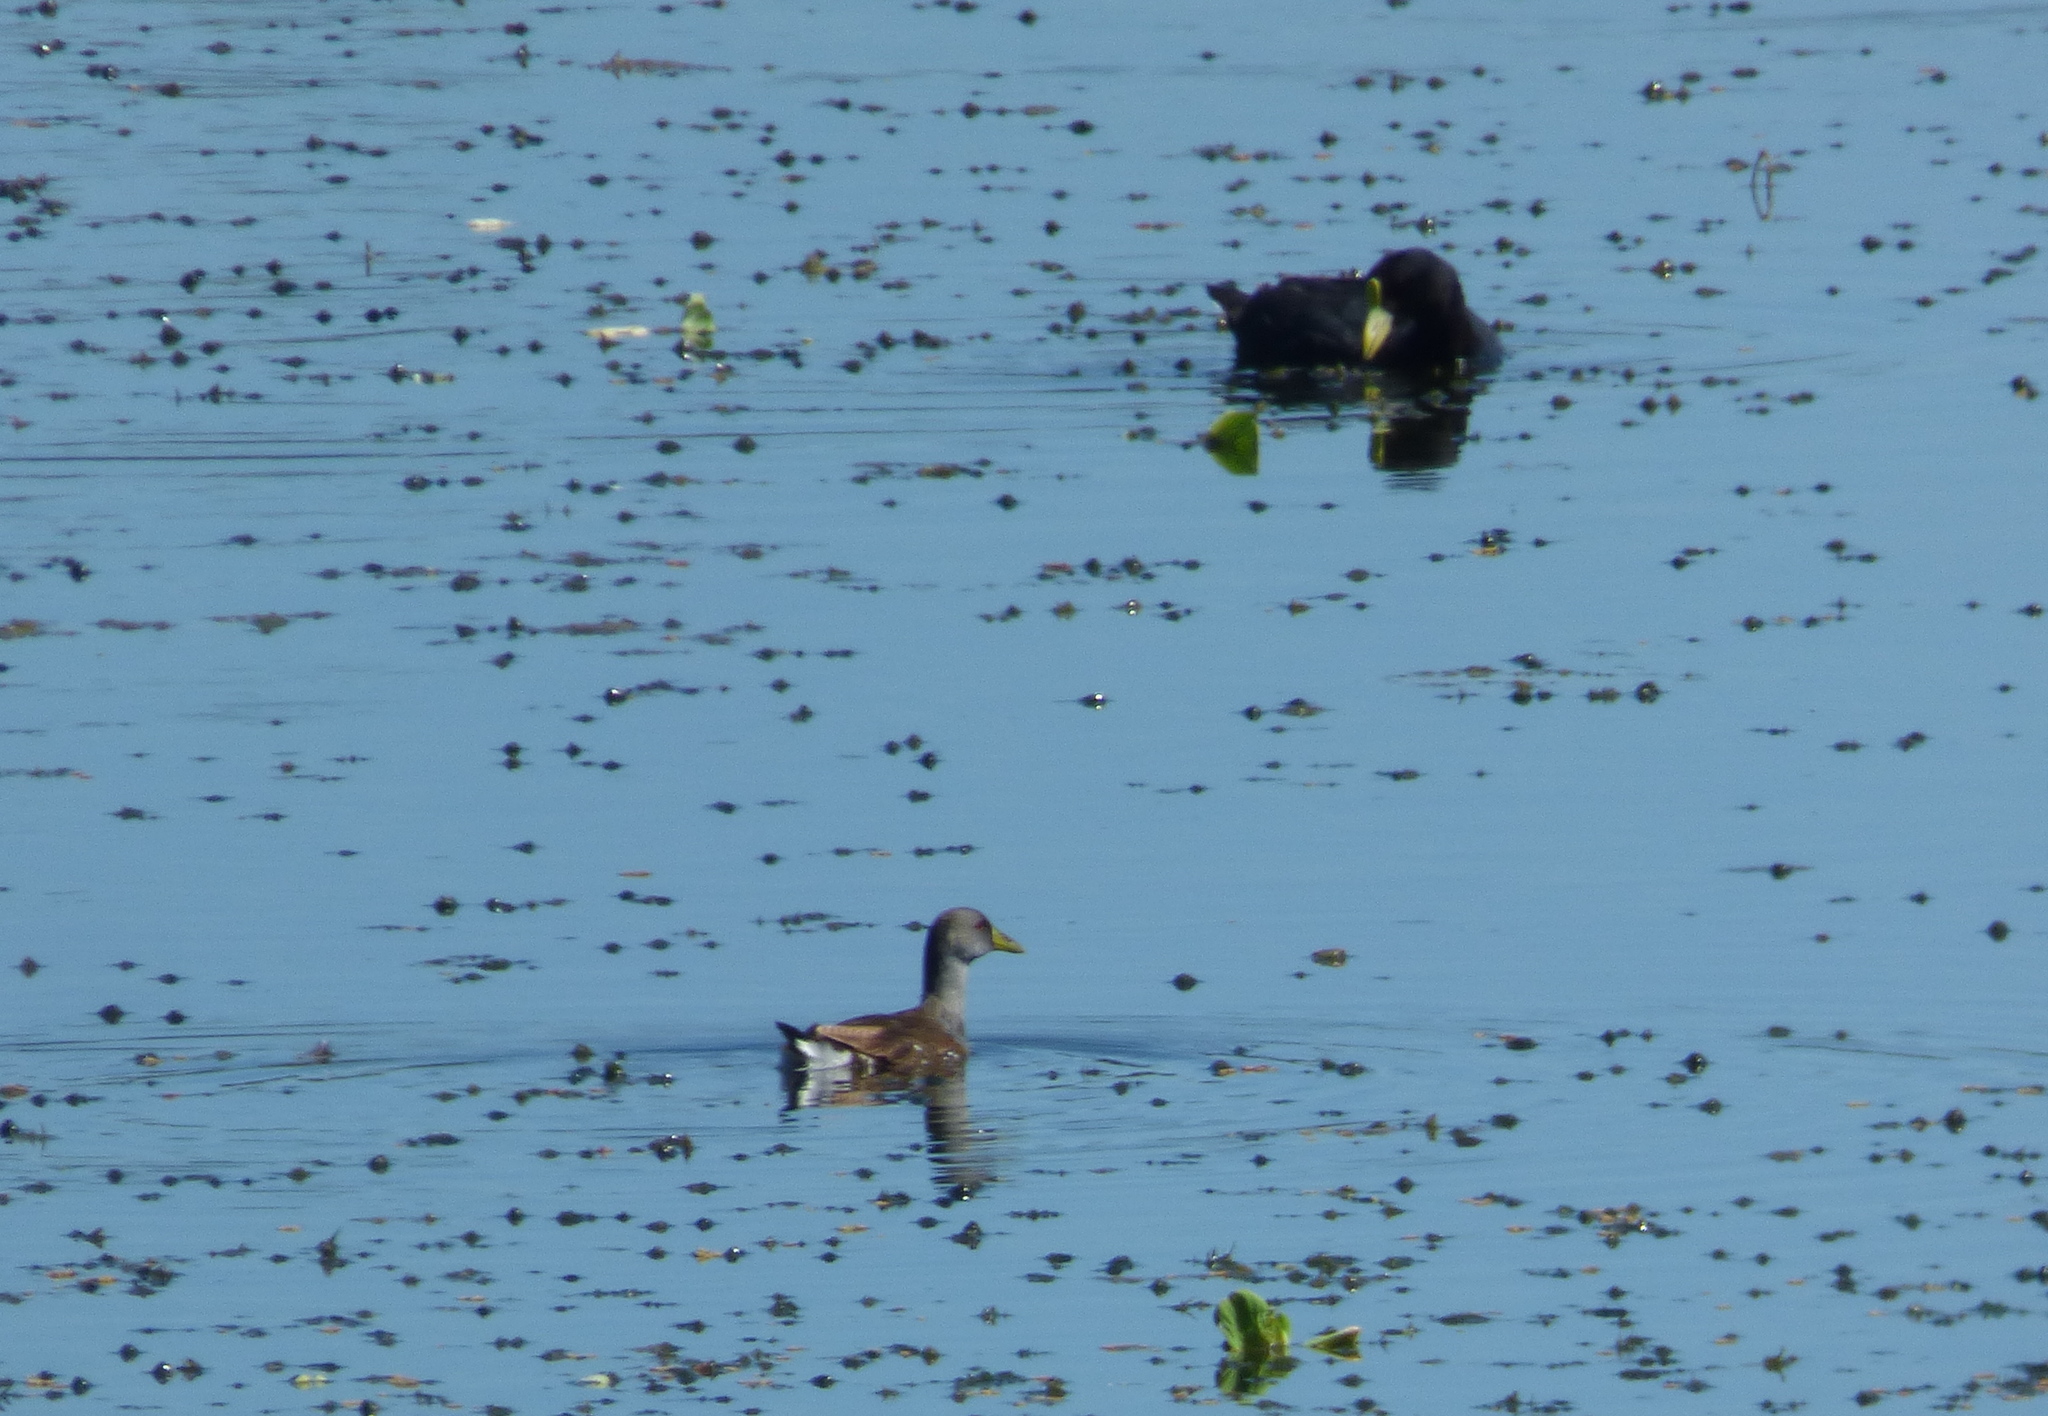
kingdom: Animalia
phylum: Chordata
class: Aves
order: Gruiformes
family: Rallidae
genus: Gallinula
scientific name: Gallinula melanops
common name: Spot-flanked gallinule
